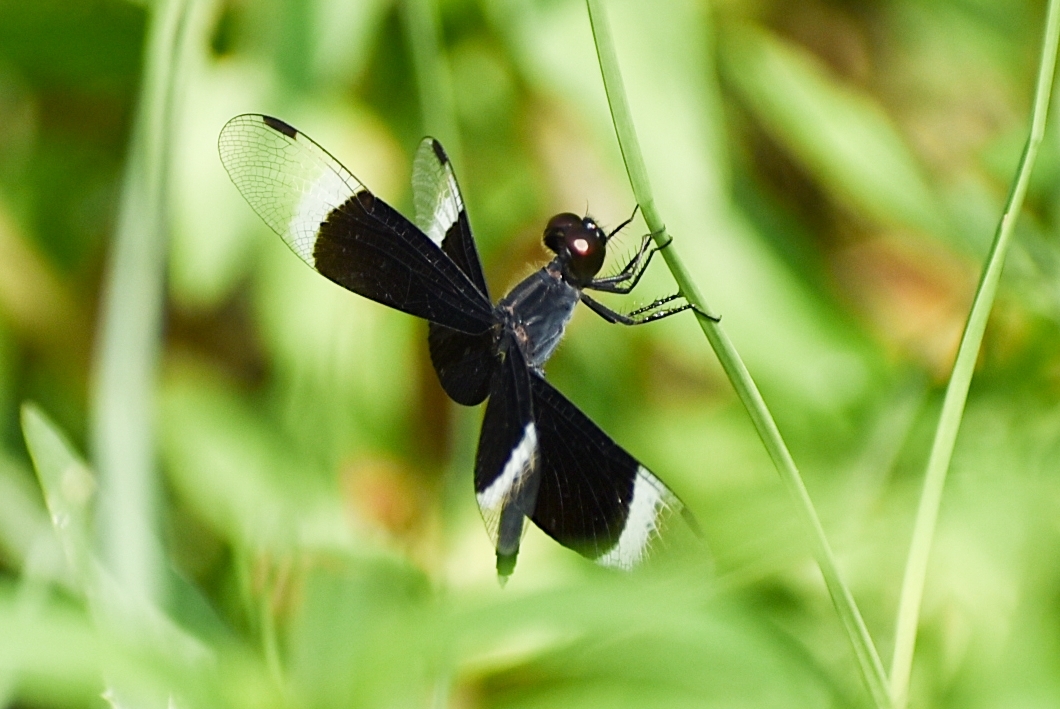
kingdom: Animalia
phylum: Arthropoda
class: Insecta
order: Odonata
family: Libellulidae
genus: Neurothemis
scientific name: Neurothemis tullia
